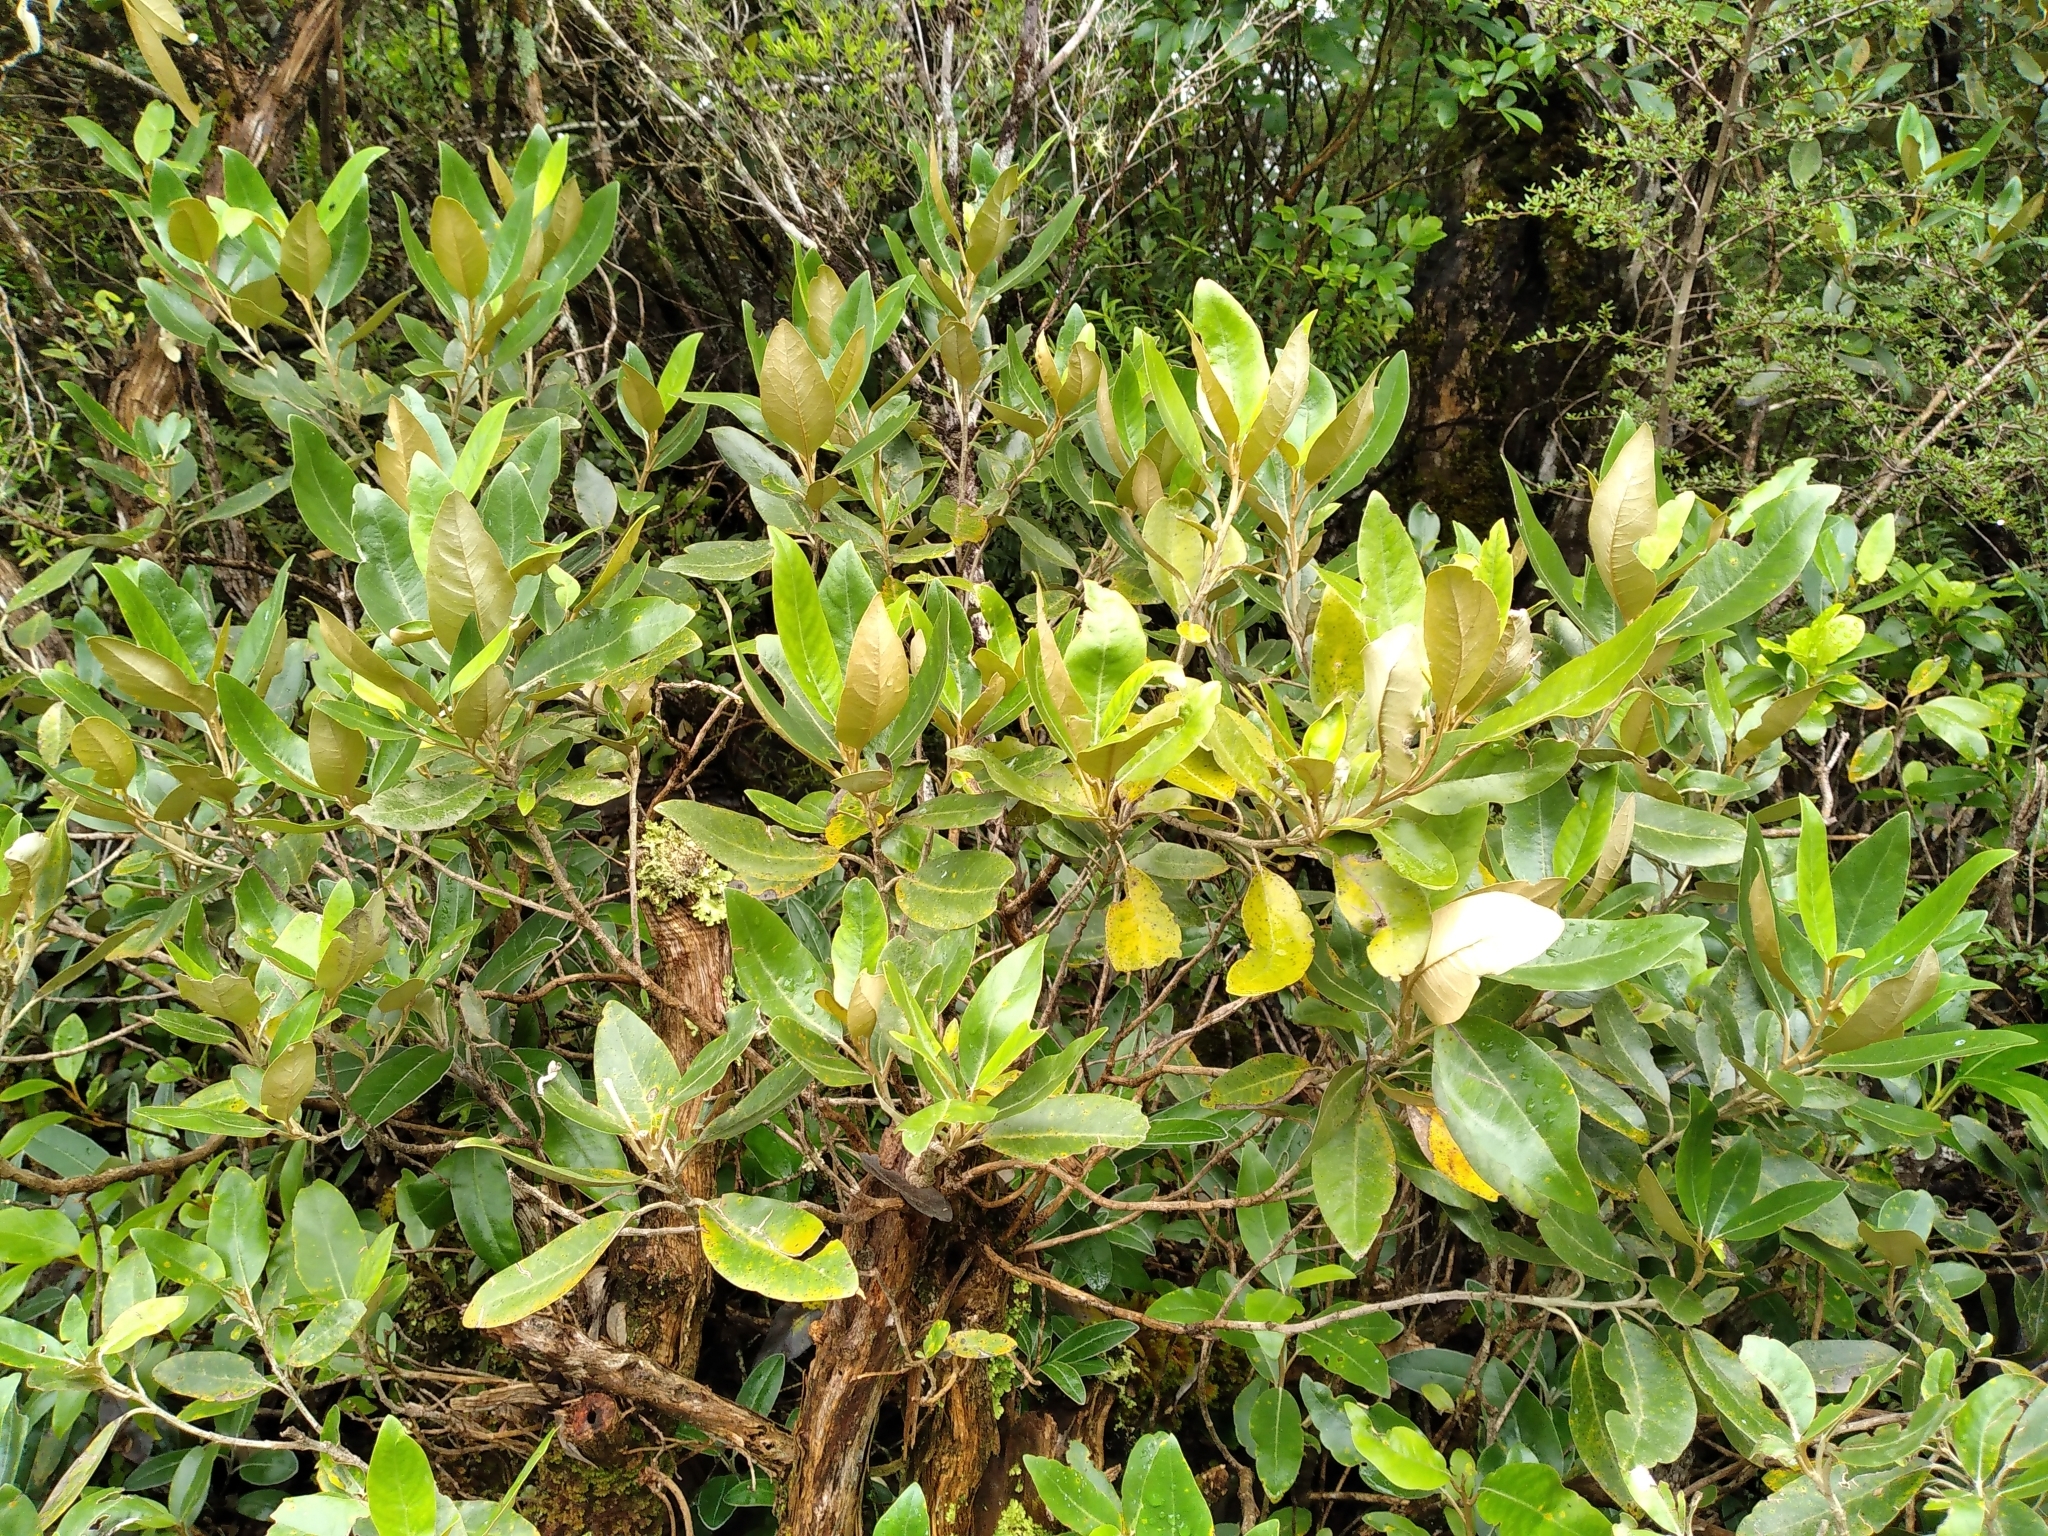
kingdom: Plantae
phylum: Tracheophyta
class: Magnoliopsida
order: Asterales
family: Asteraceae
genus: Olearia
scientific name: Olearia avicenniifolia
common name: Mangrove-leaf daisybush
